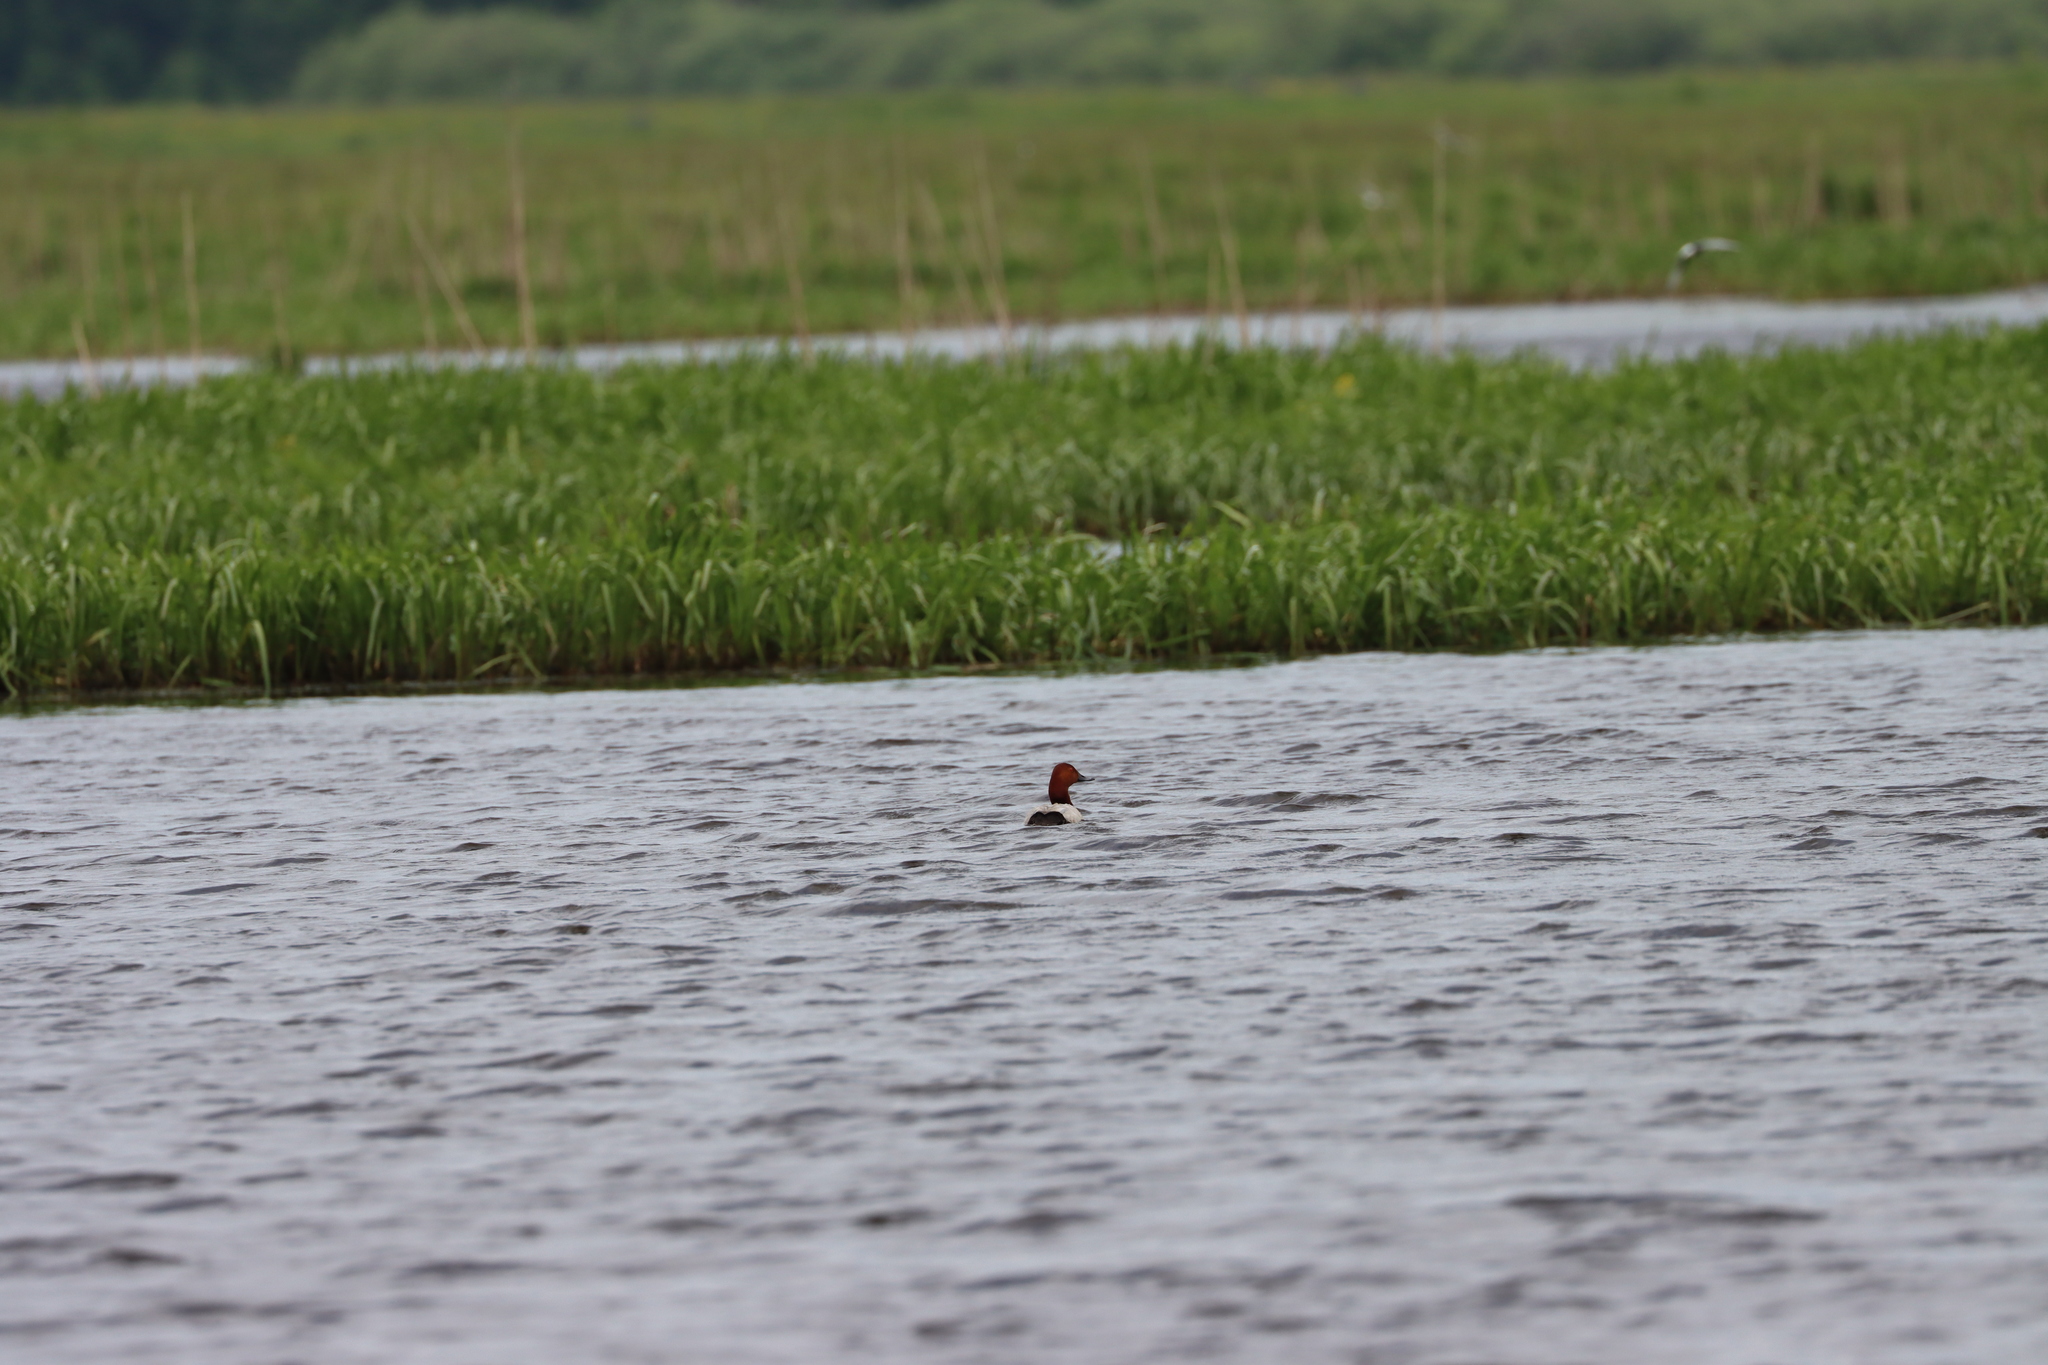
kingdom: Animalia
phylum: Chordata
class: Aves
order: Anseriformes
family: Anatidae
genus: Aythya
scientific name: Aythya ferina
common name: Common pochard
